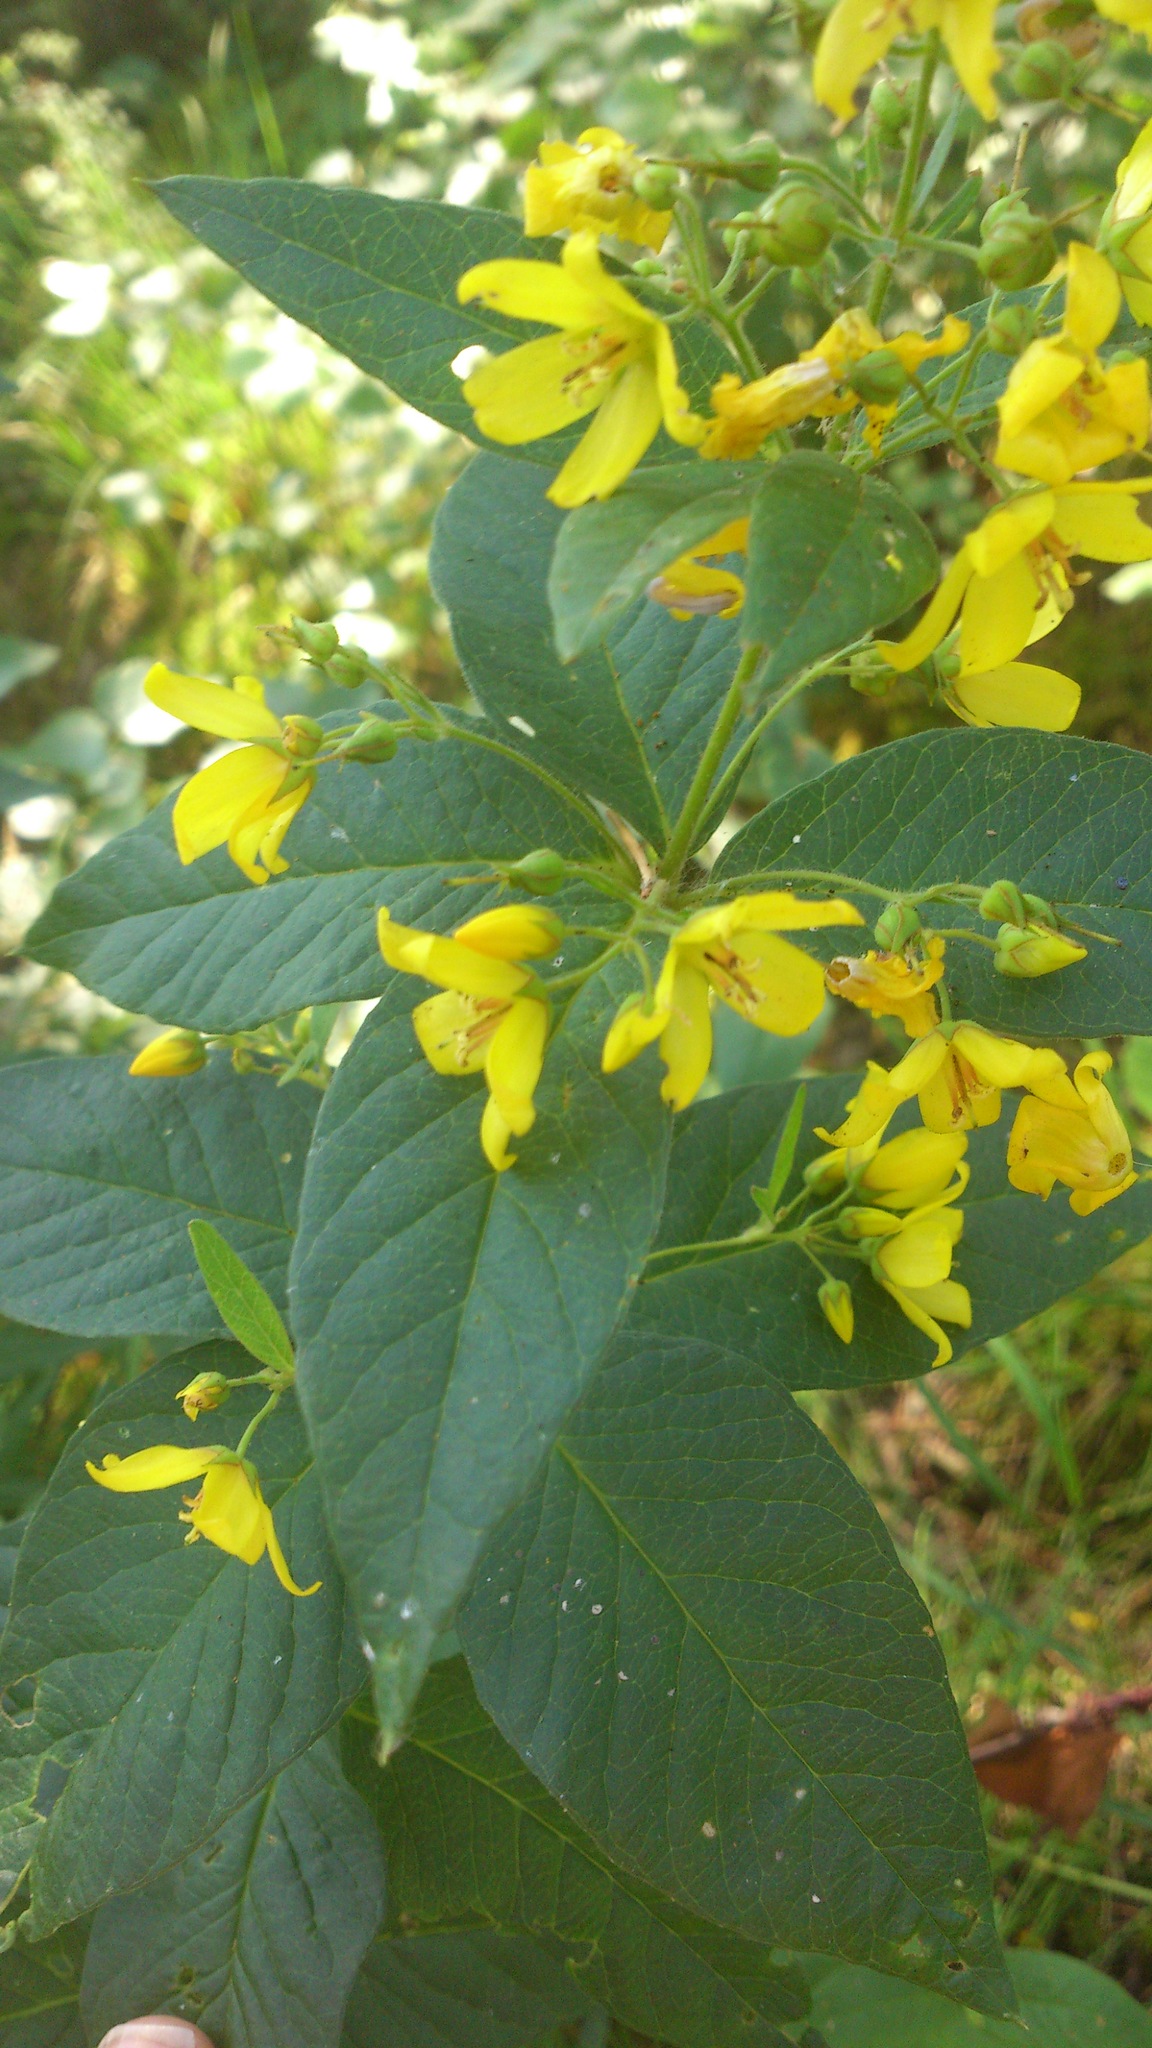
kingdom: Plantae
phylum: Tracheophyta
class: Magnoliopsida
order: Ericales
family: Primulaceae
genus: Lysimachia
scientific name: Lysimachia vulgaris
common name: Yellow loosestrife
